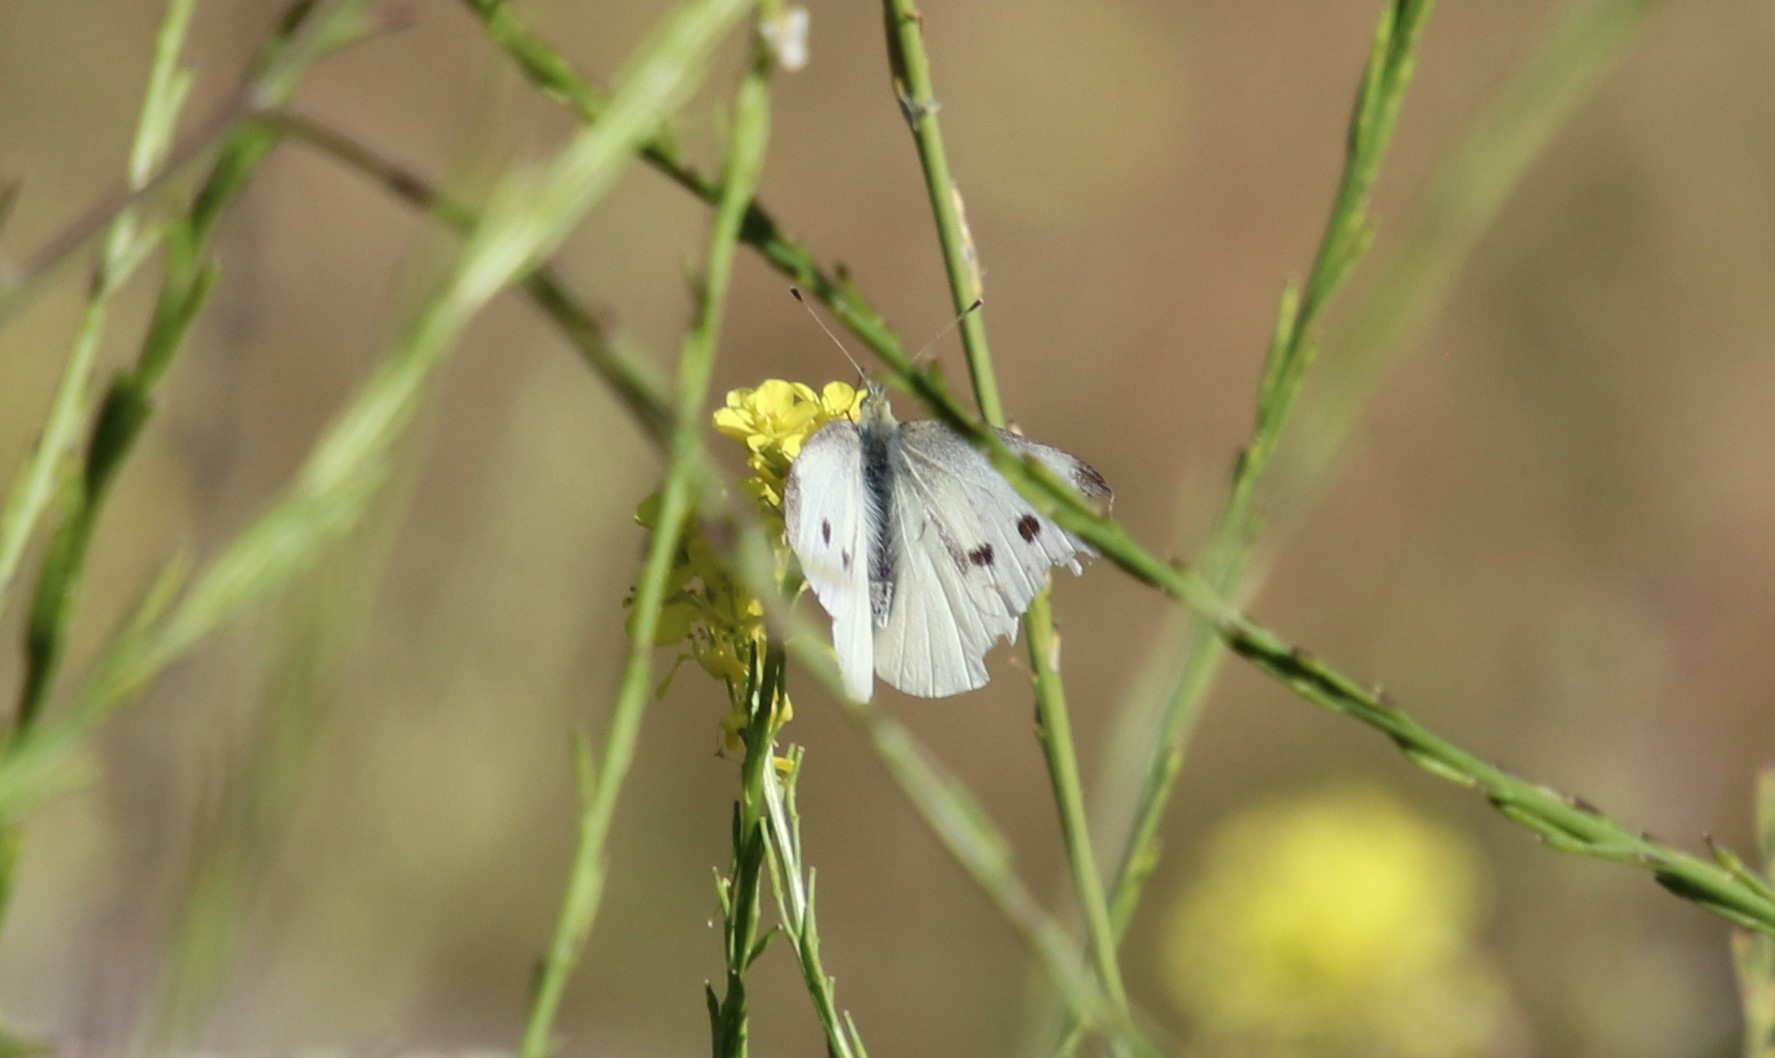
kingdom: Animalia
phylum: Arthropoda
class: Insecta
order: Lepidoptera
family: Pieridae
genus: Pieris
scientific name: Pieris rapae
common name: Small white
